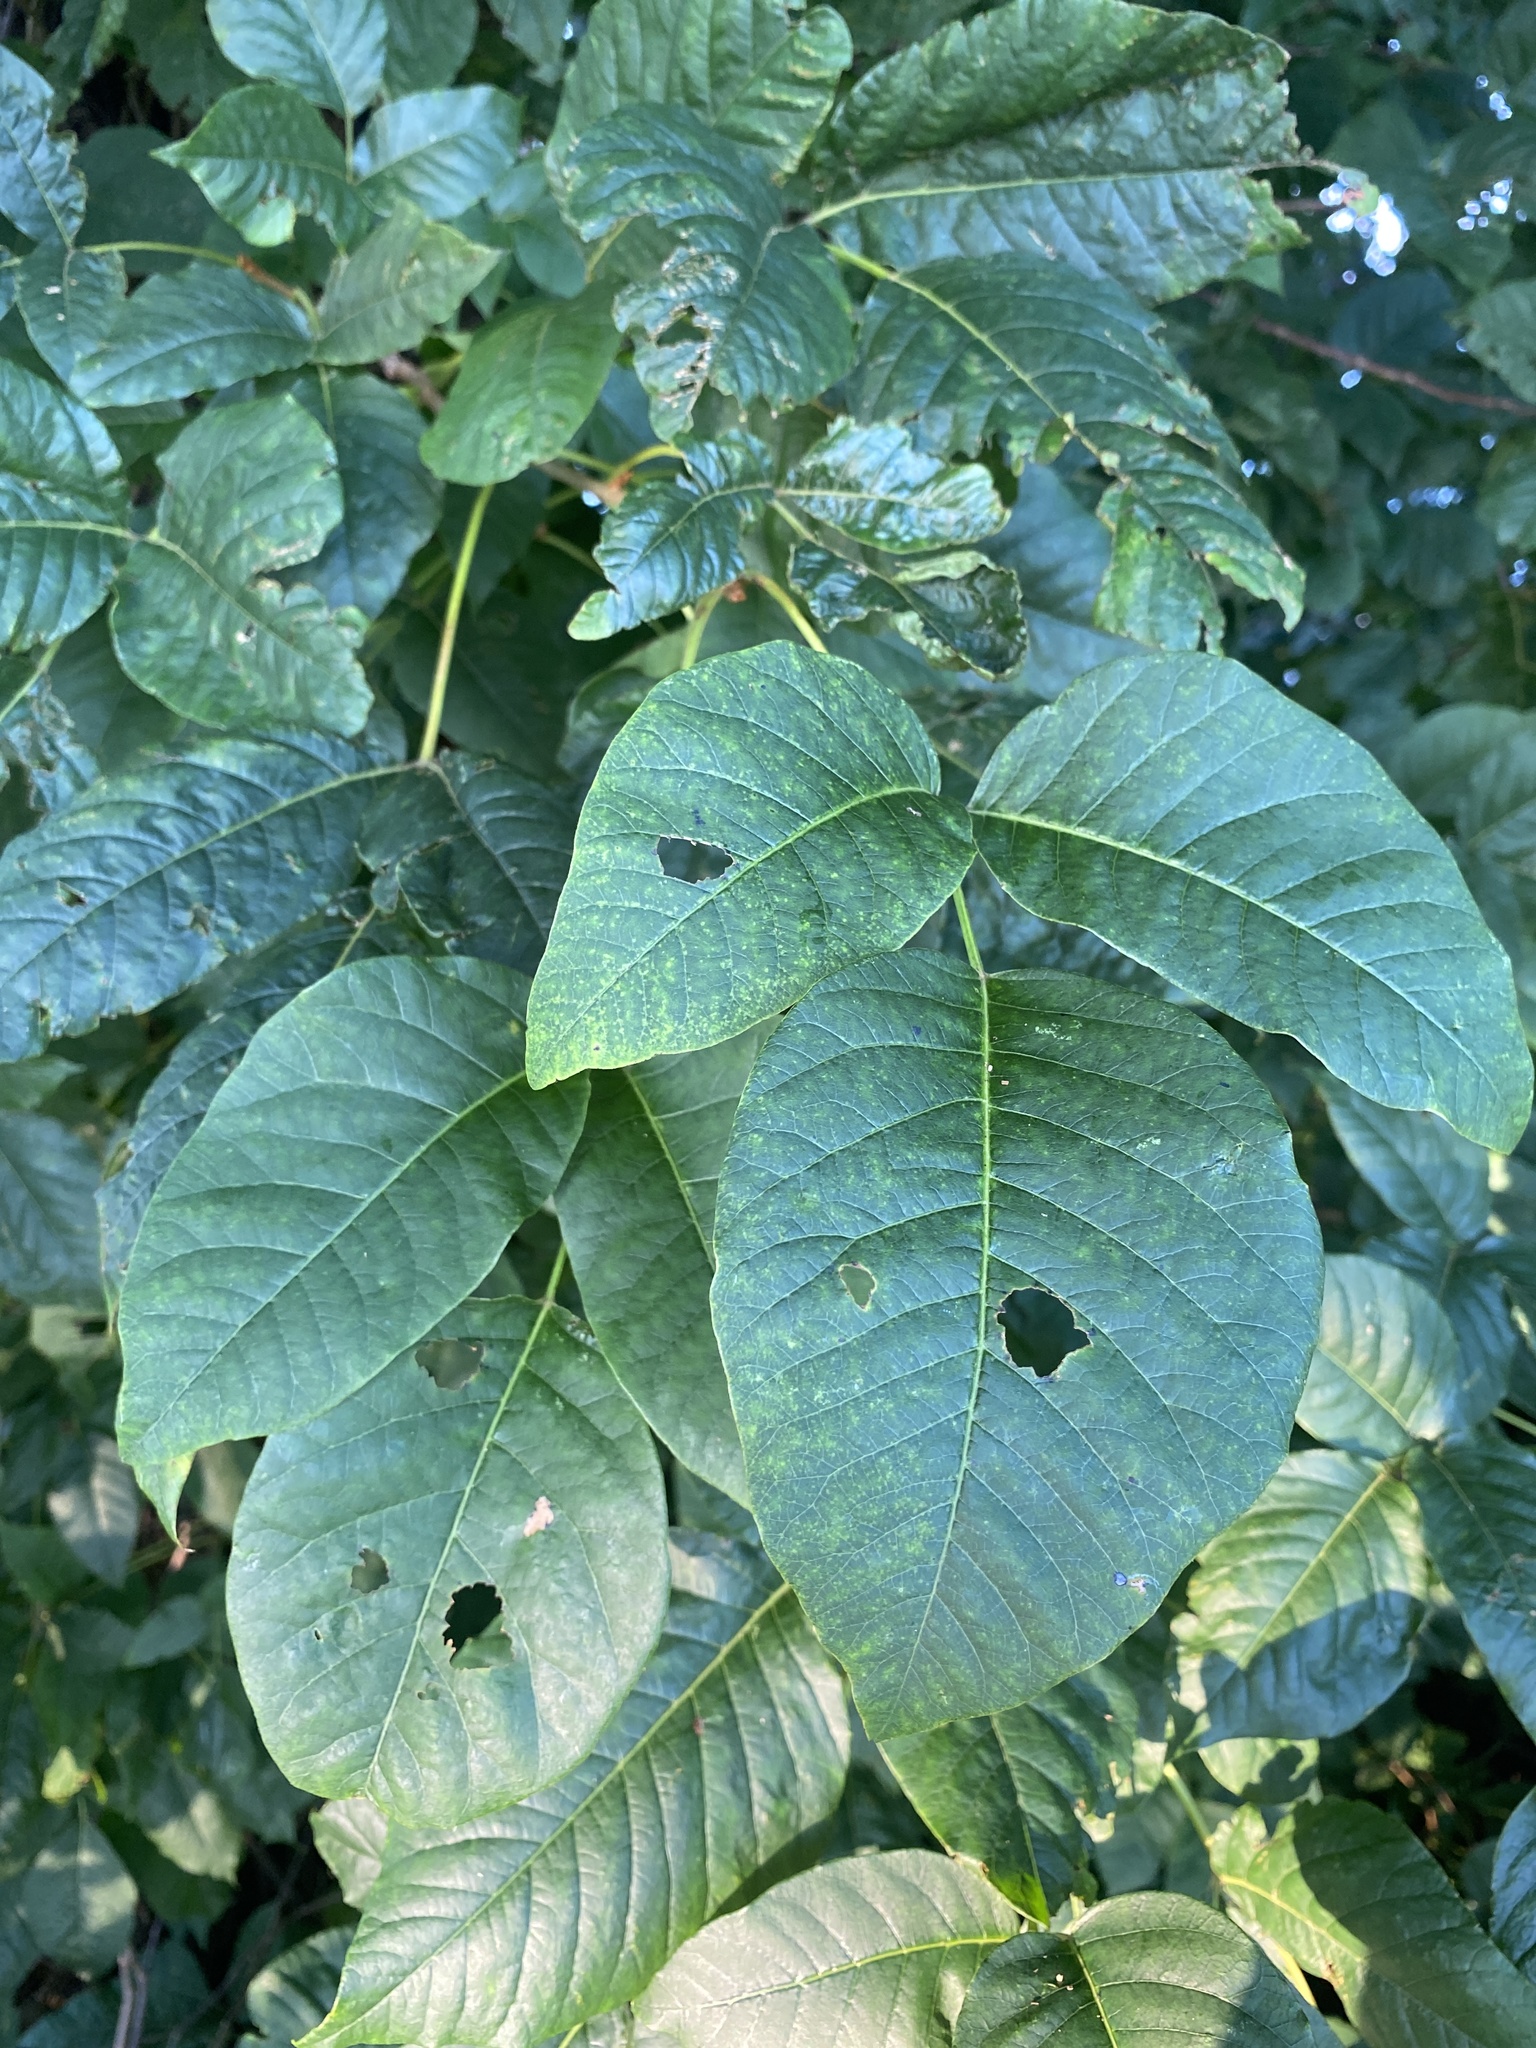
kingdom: Plantae
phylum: Tracheophyta
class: Magnoliopsida
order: Sapindales
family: Anacardiaceae
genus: Toxicodendron
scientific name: Toxicodendron radicans
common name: Poison ivy
